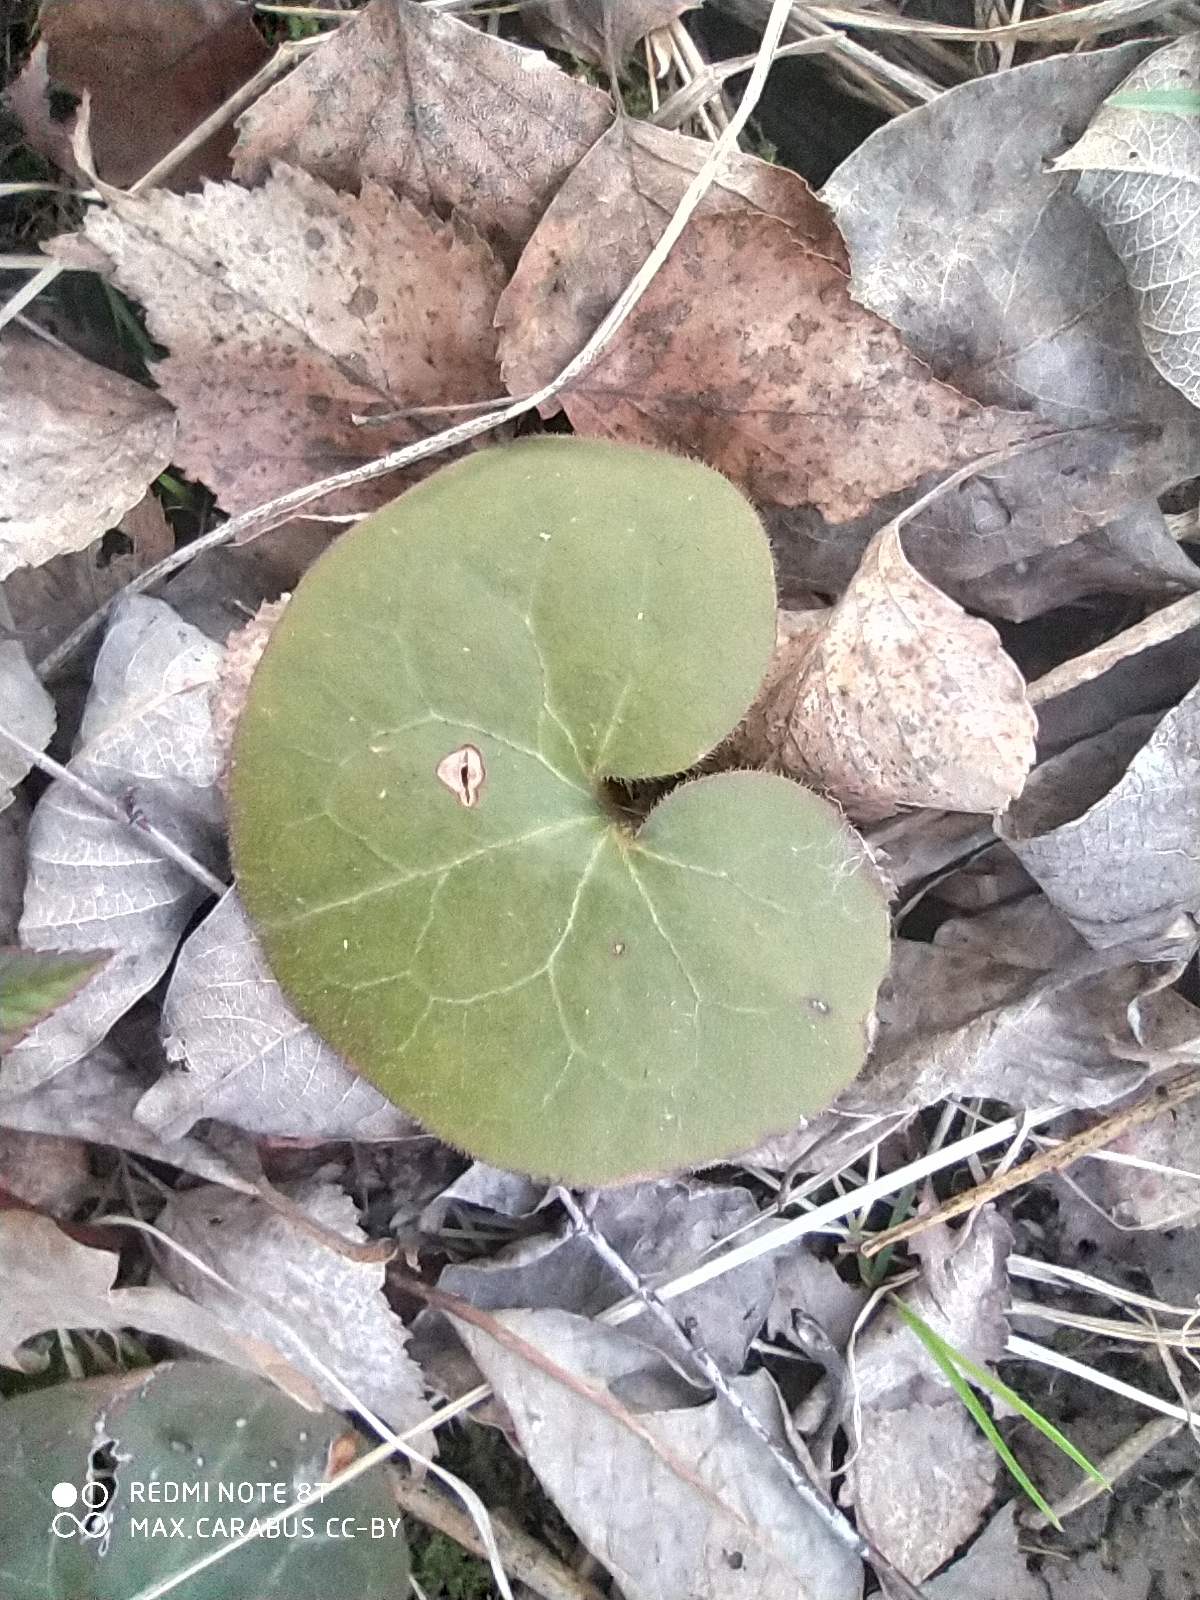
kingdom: Plantae
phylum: Tracheophyta
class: Magnoliopsida
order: Piperales
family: Aristolochiaceae
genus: Asarum
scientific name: Asarum europaeum
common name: Asarabacca
